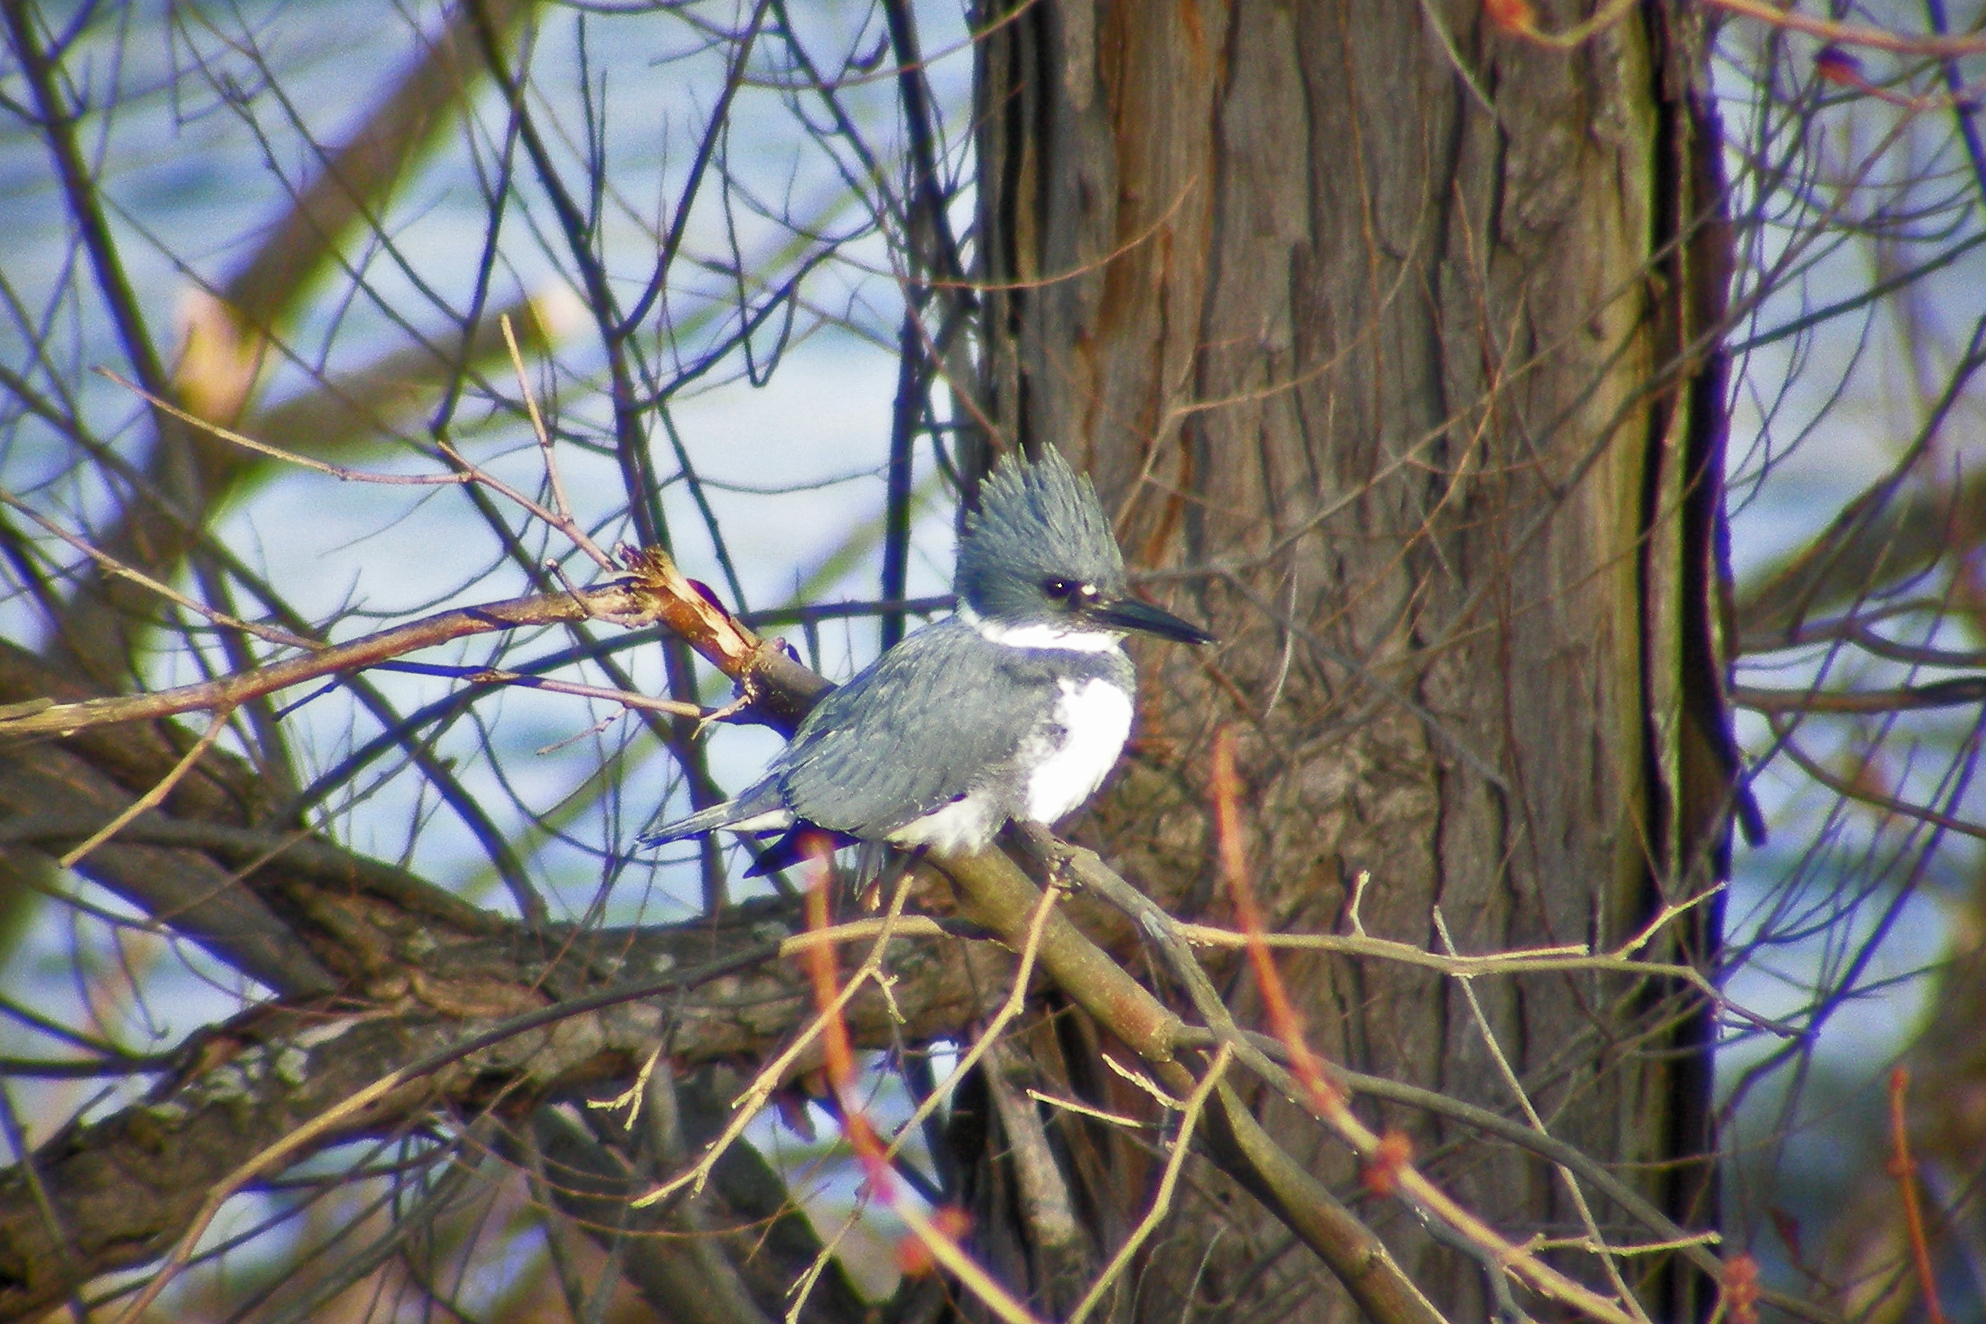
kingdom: Animalia
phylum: Chordata
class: Aves
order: Coraciiformes
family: Alcedinidae
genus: Megaceryle
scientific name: Megaceryle alcyon
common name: Belted kingfisher
